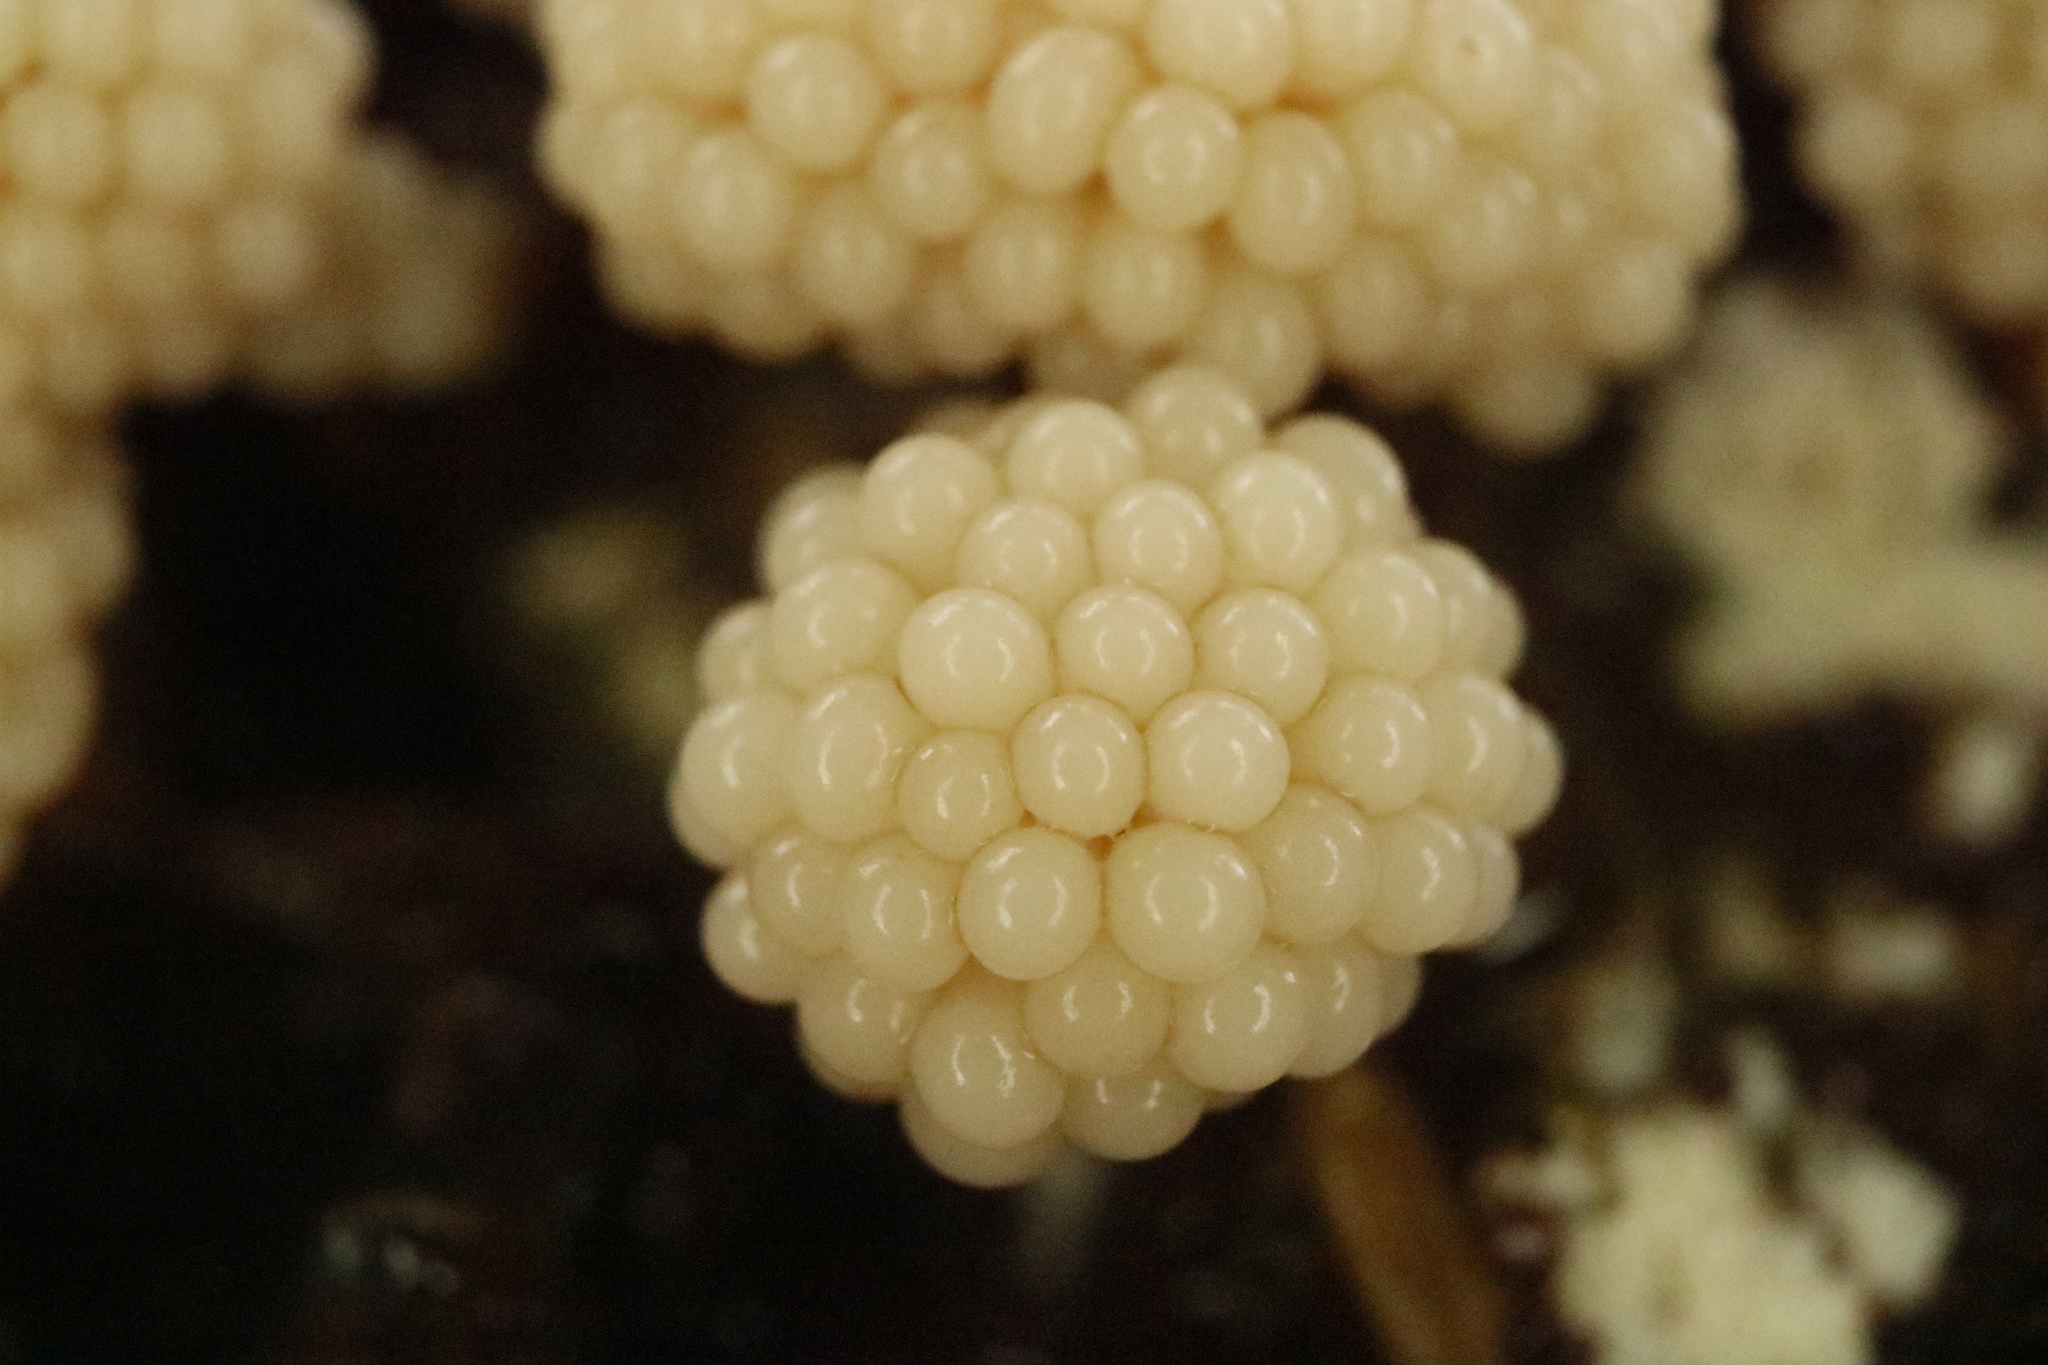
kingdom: Protozoa
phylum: Mycetozoa
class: Myxomycetes
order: Trichiales
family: Trichiaceae
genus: Oligonema
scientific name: Oligonema verrucosum
